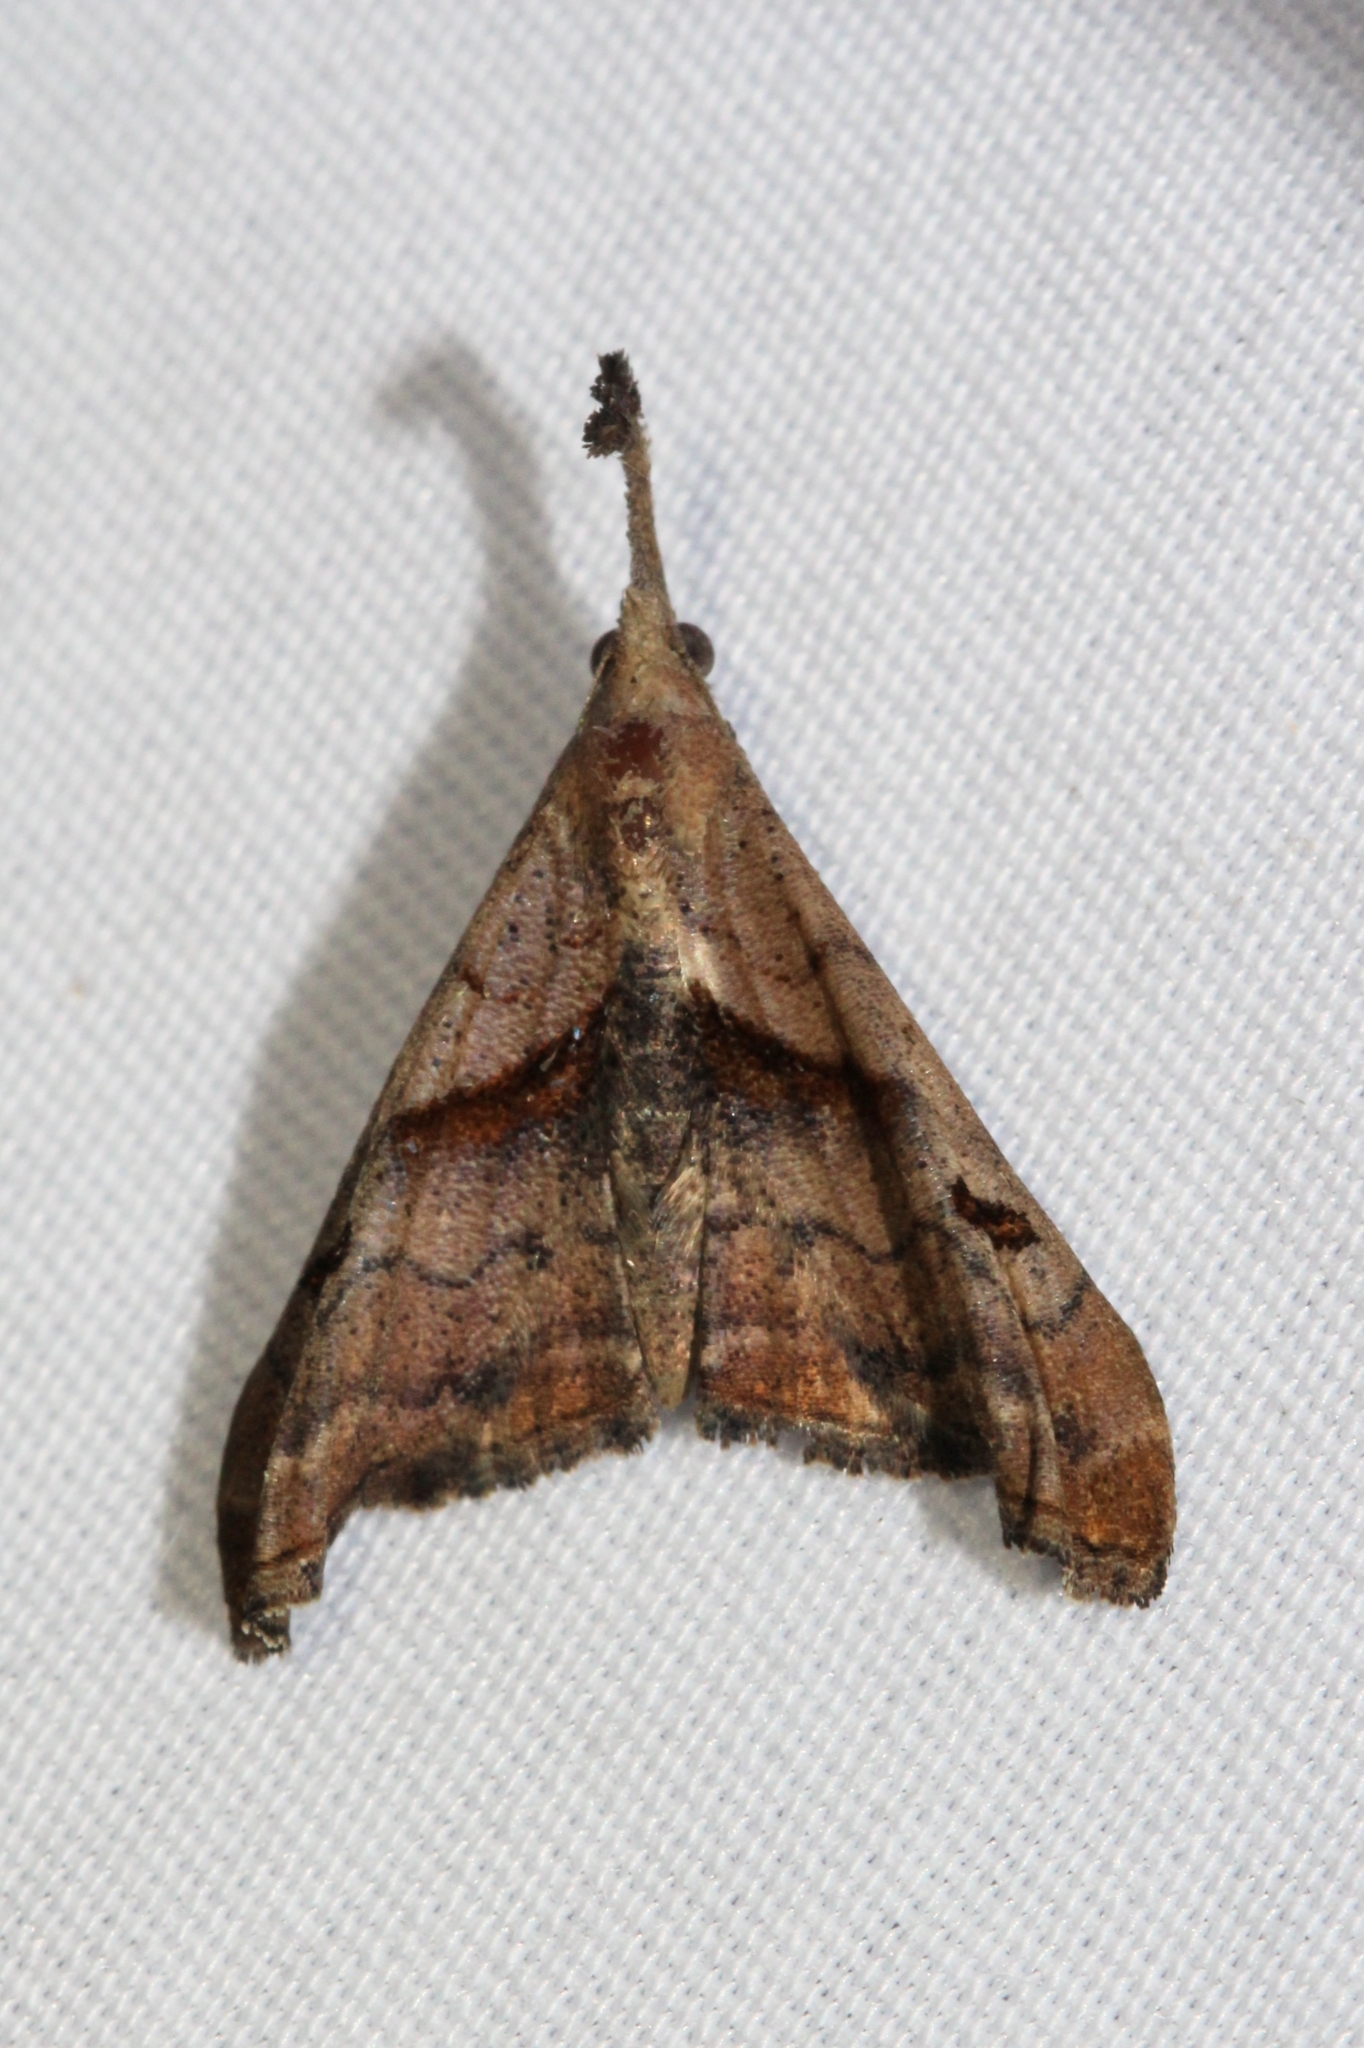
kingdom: Animalia
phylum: Arthropoda
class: Insecta
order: Lepidoptera
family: Erebidae
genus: Palthis
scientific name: Palthis angulalis
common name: Dark-spotted palthis moth
